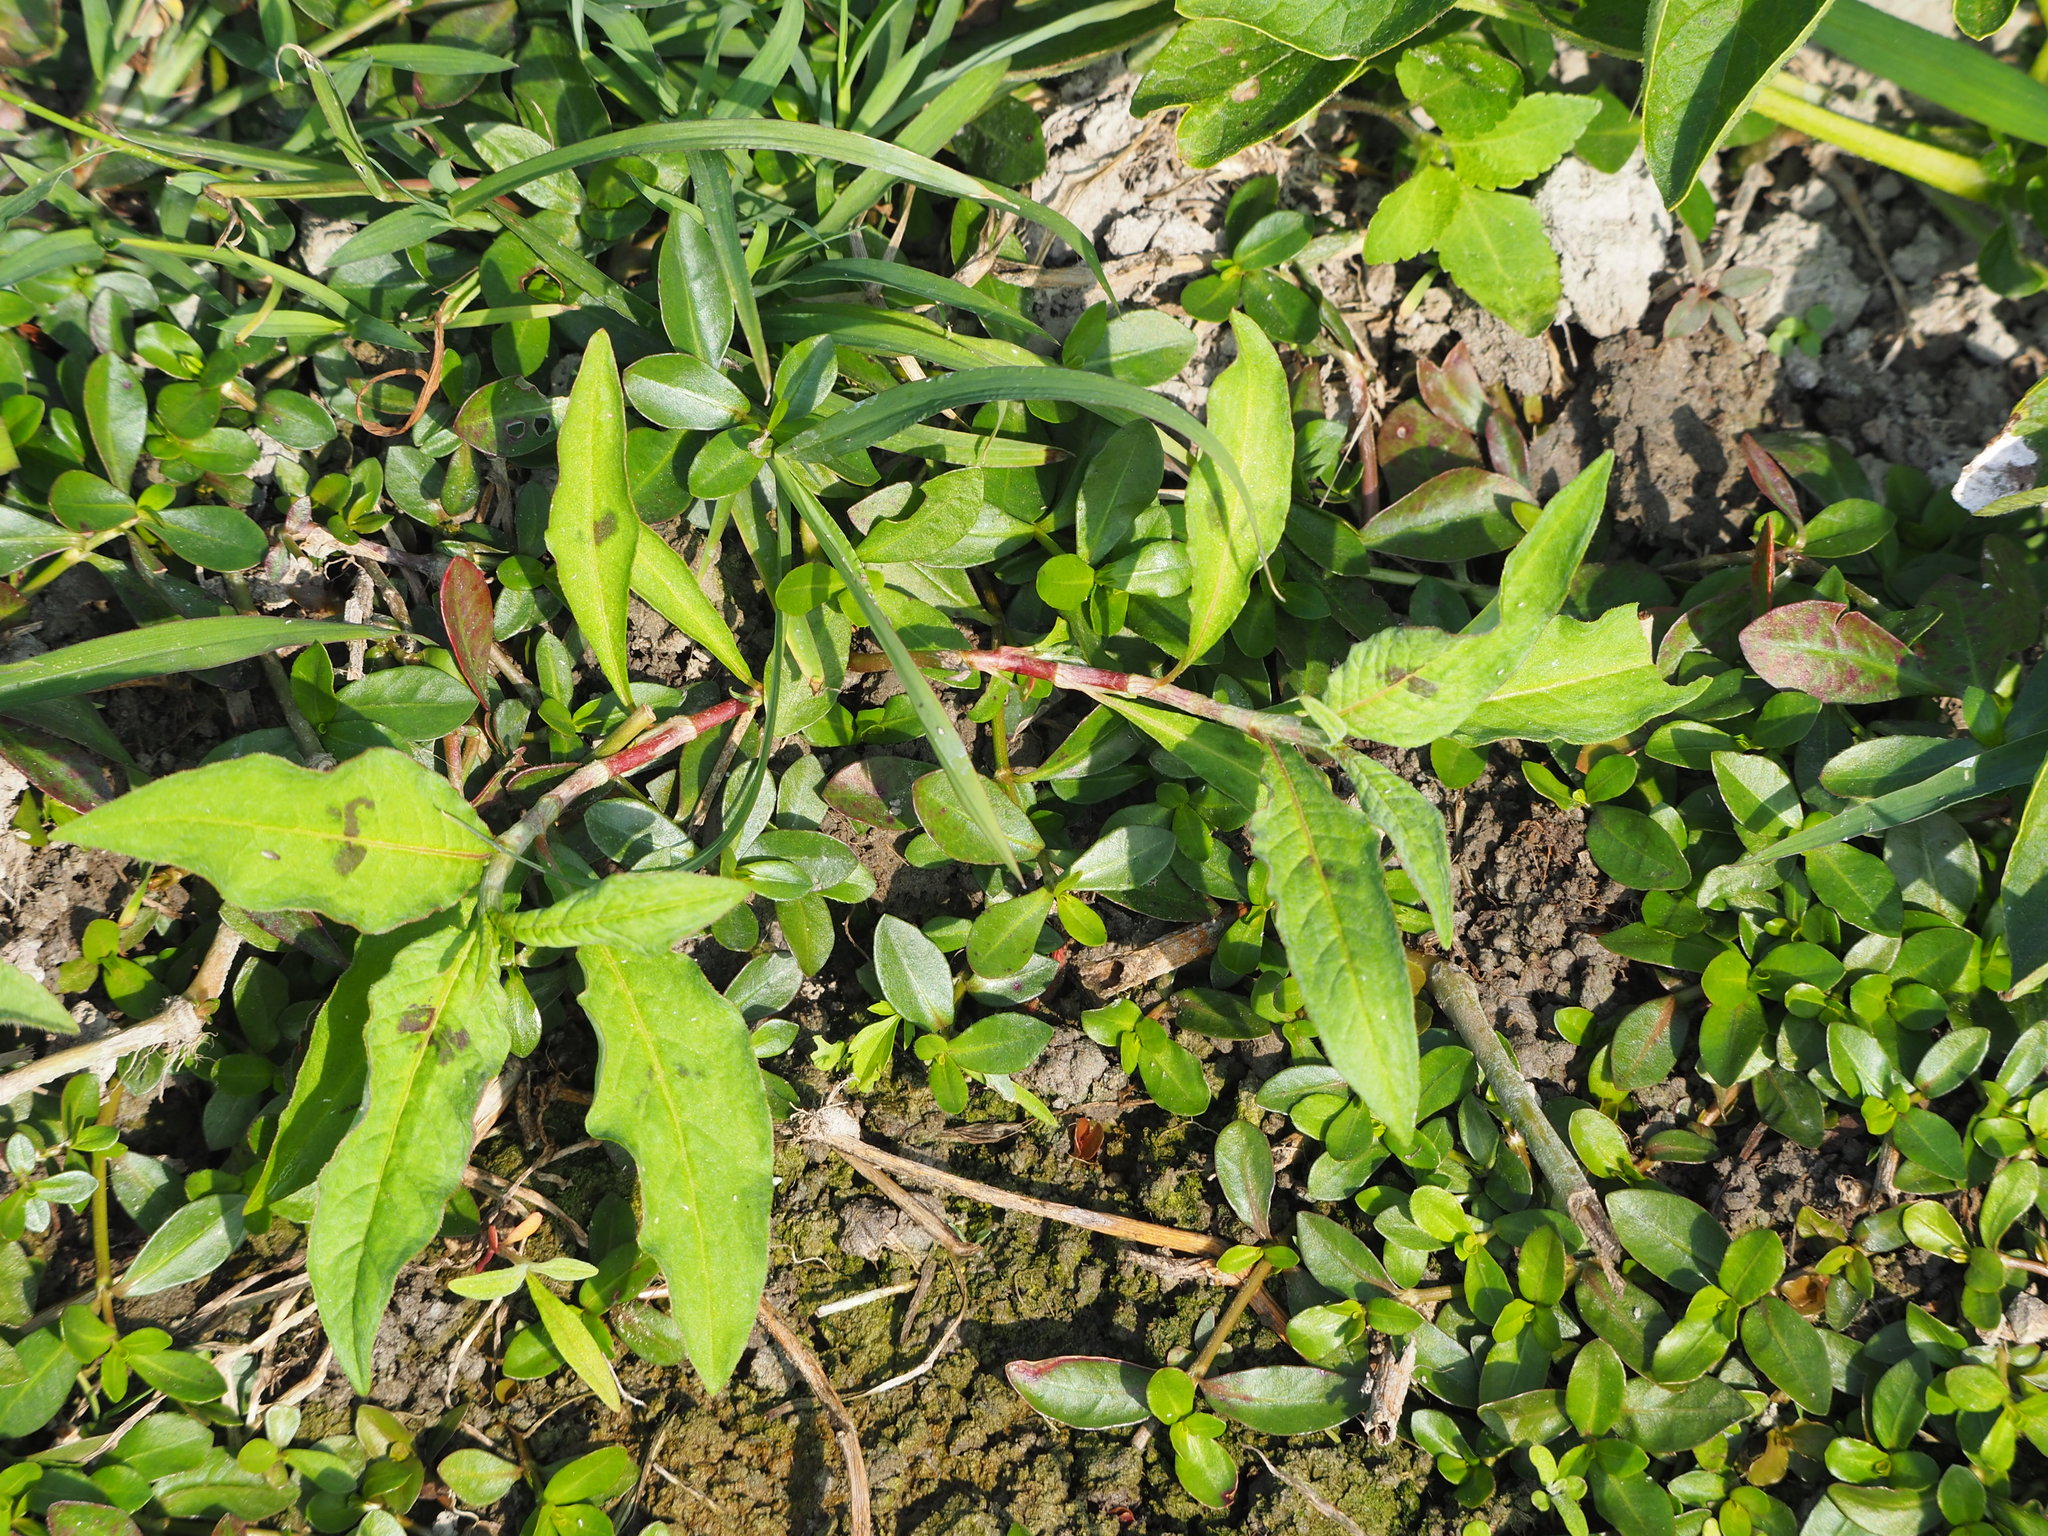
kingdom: Plantae
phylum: Tracheophyta
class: Magnoliopsida
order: Caryophyllales
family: Polygonaceae
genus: Persicaria
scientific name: Persicaria lapathifolia
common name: Curlytop knotweed
